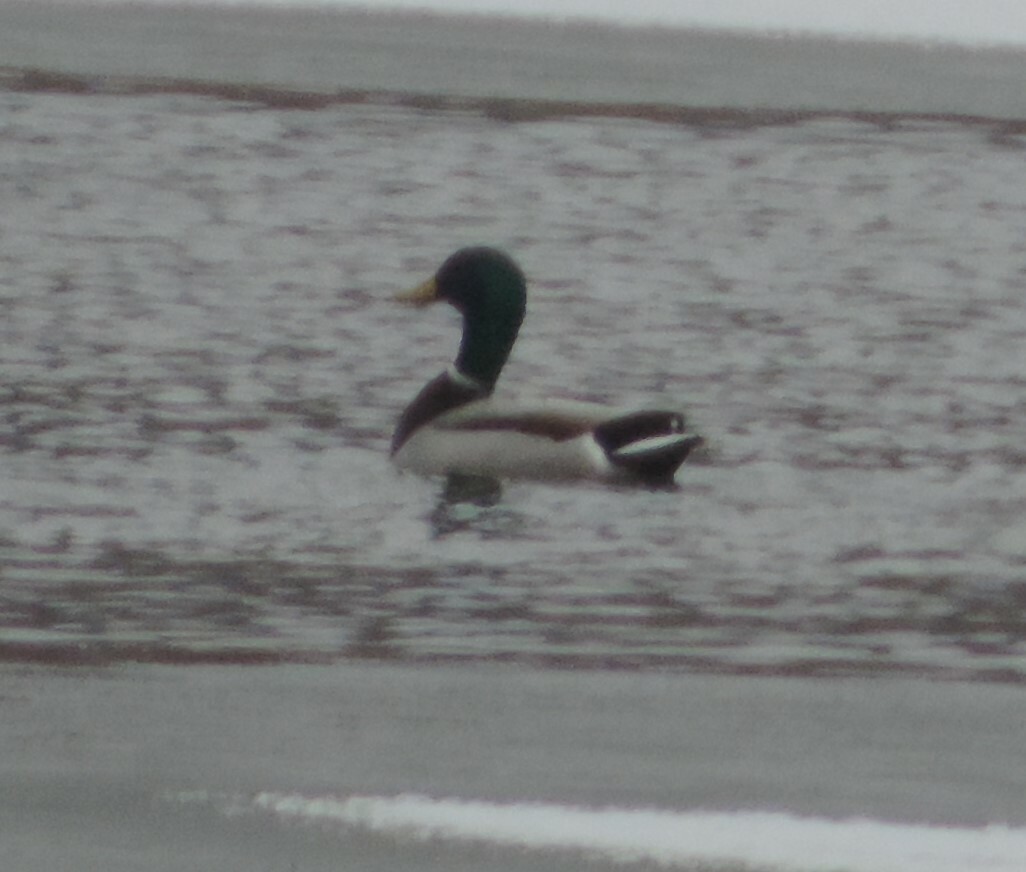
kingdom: Animalia
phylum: Chordata
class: Aves
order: Anseriformes
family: Anatidae
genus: Anas
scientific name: Anas platyrhynchos
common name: Mallard
